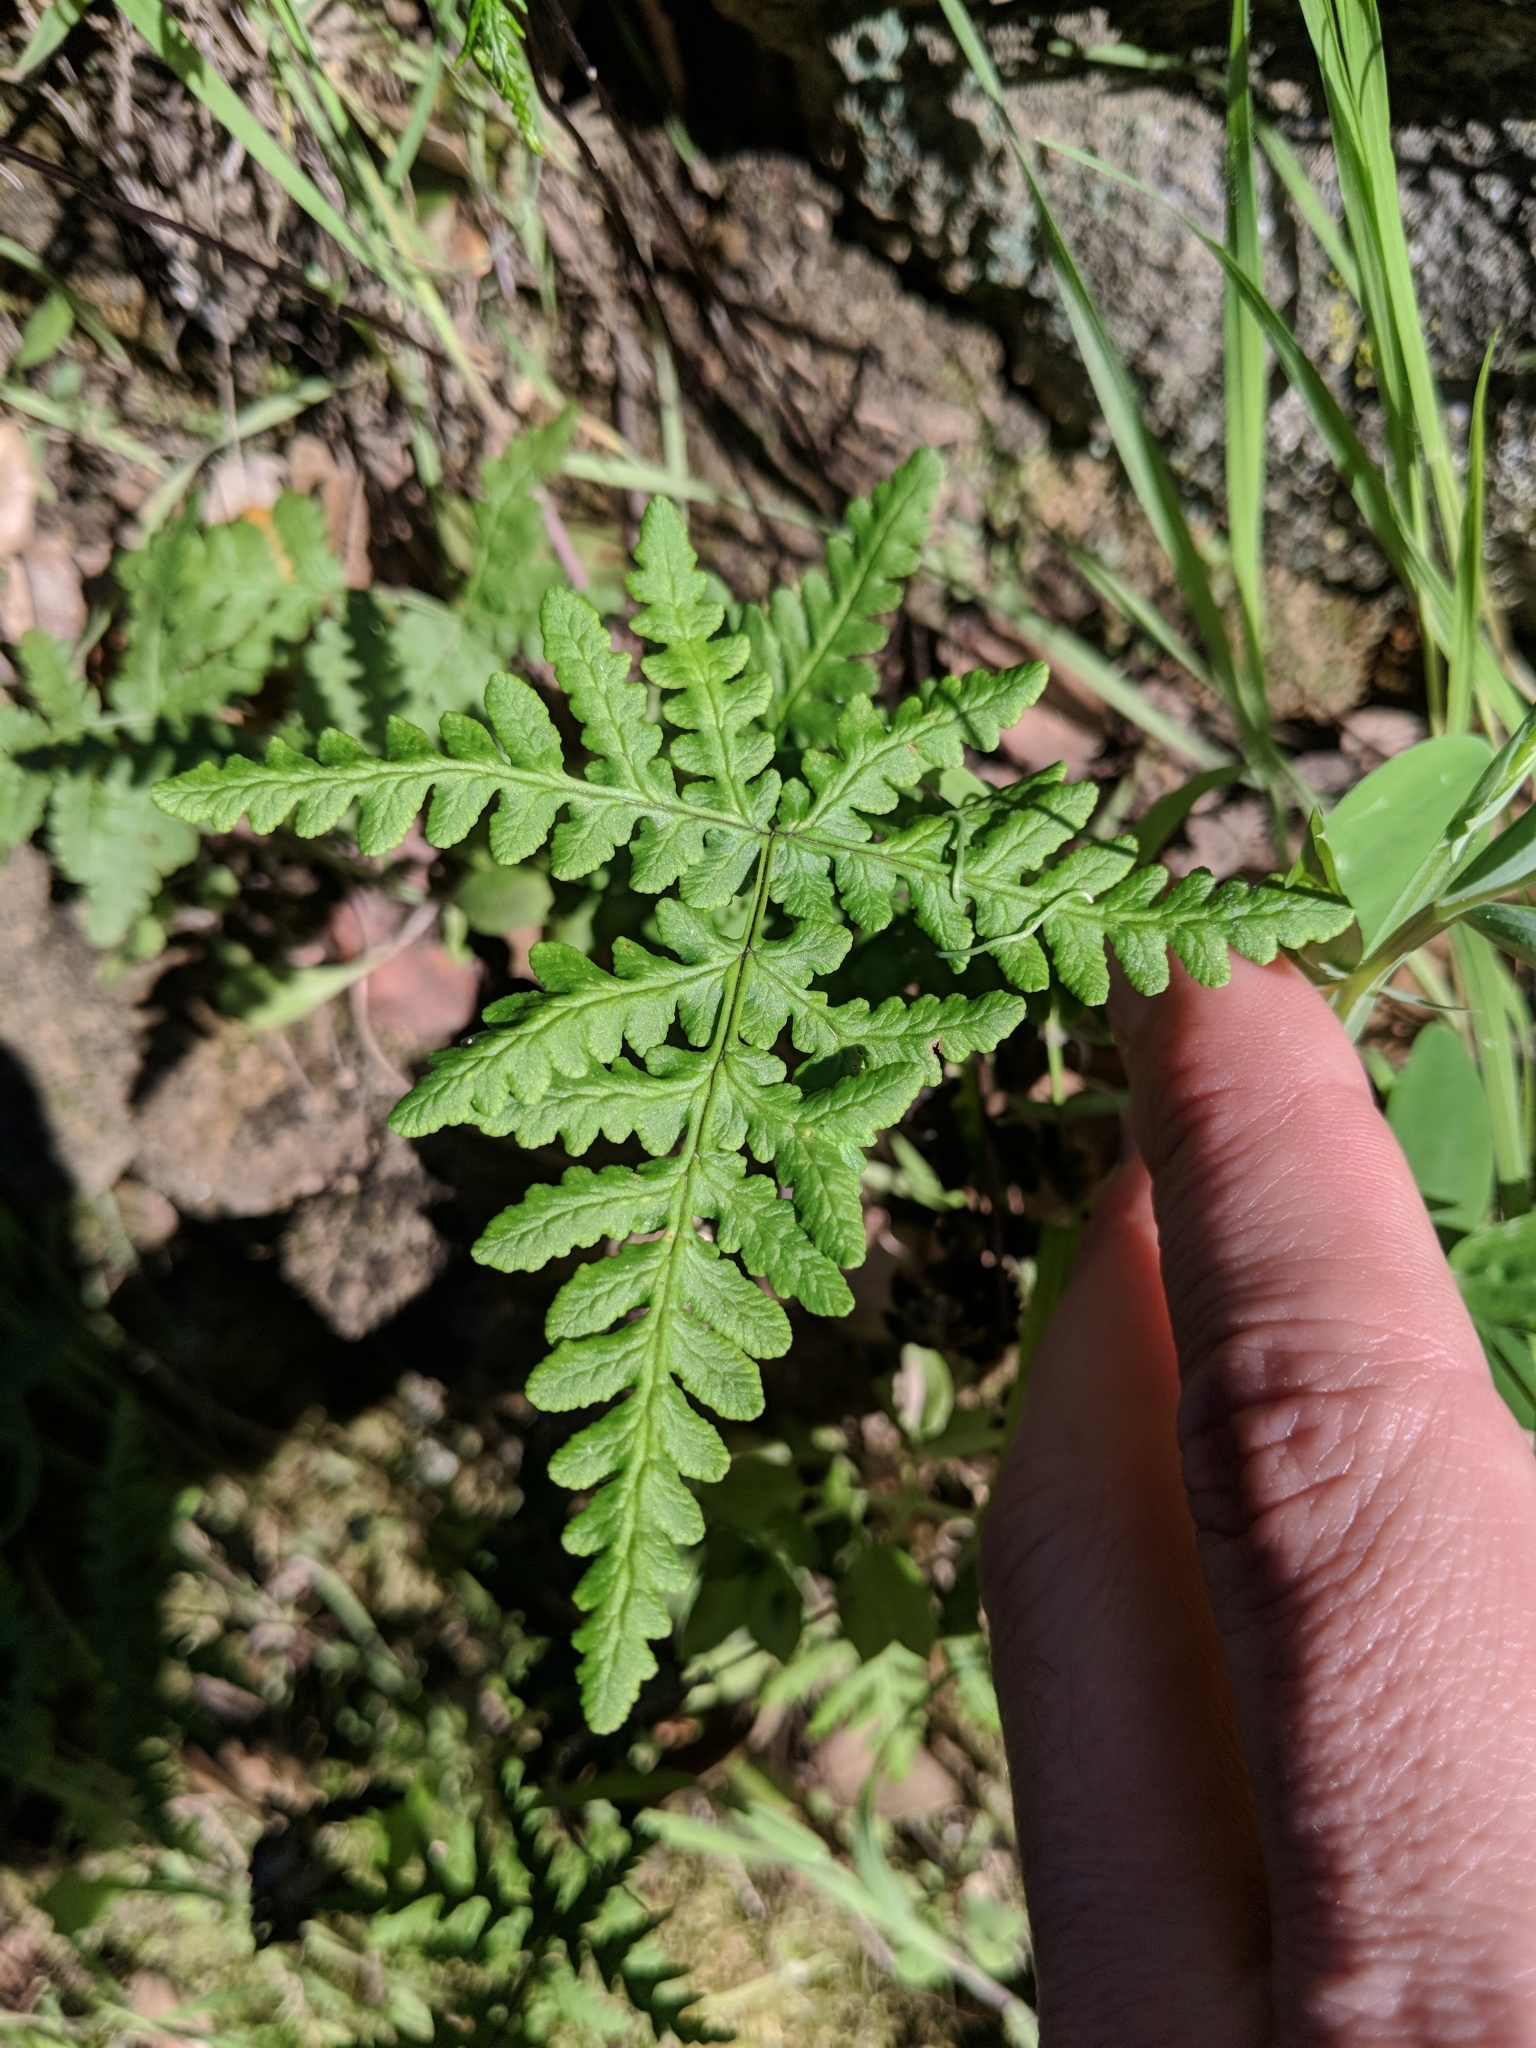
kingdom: Plantae
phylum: Tracheophyta
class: Polypodiopsida
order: Polypodiales
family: Pteridaceae
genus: Pentagramma
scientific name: Pentagramma triangularis
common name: Gold fern
